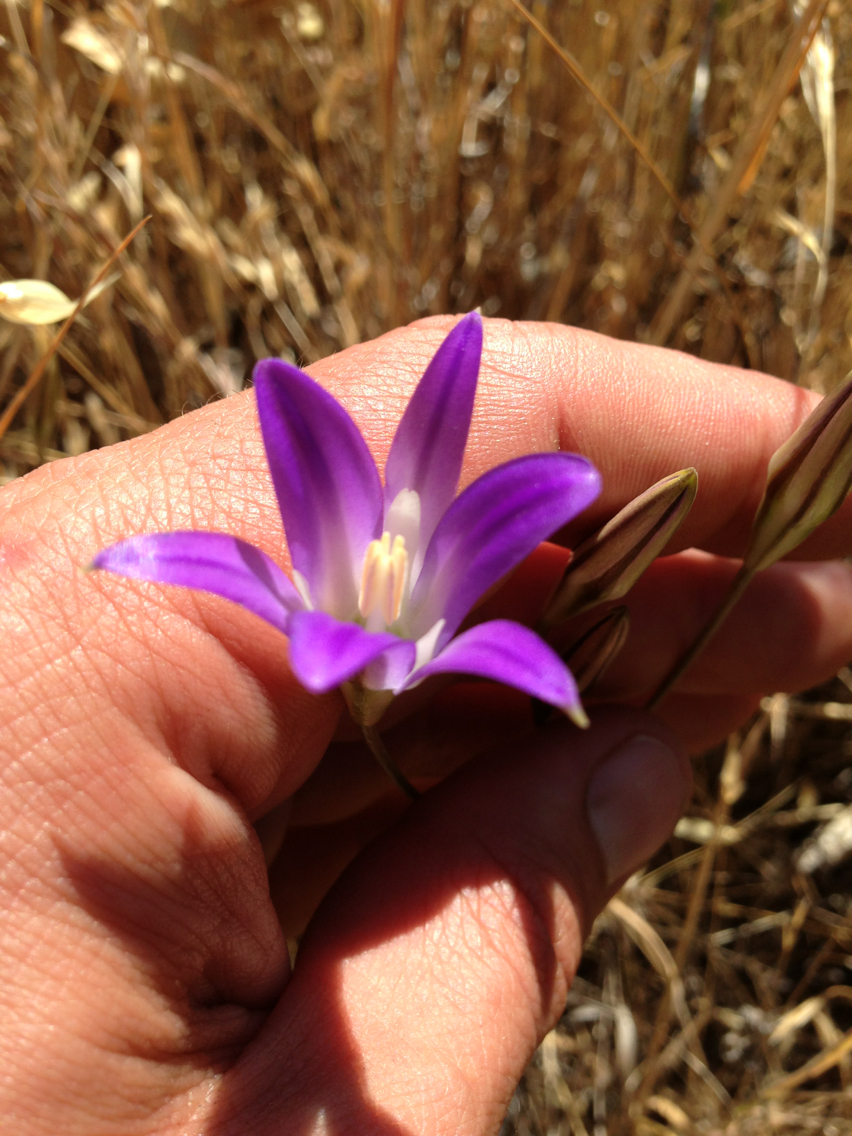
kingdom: Plantae
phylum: Tracheophyta
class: Liliopsida
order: Asparagales
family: Asparagaceae
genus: Brodiaea
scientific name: Brodiaea elegans
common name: Elegant cluster-lily
